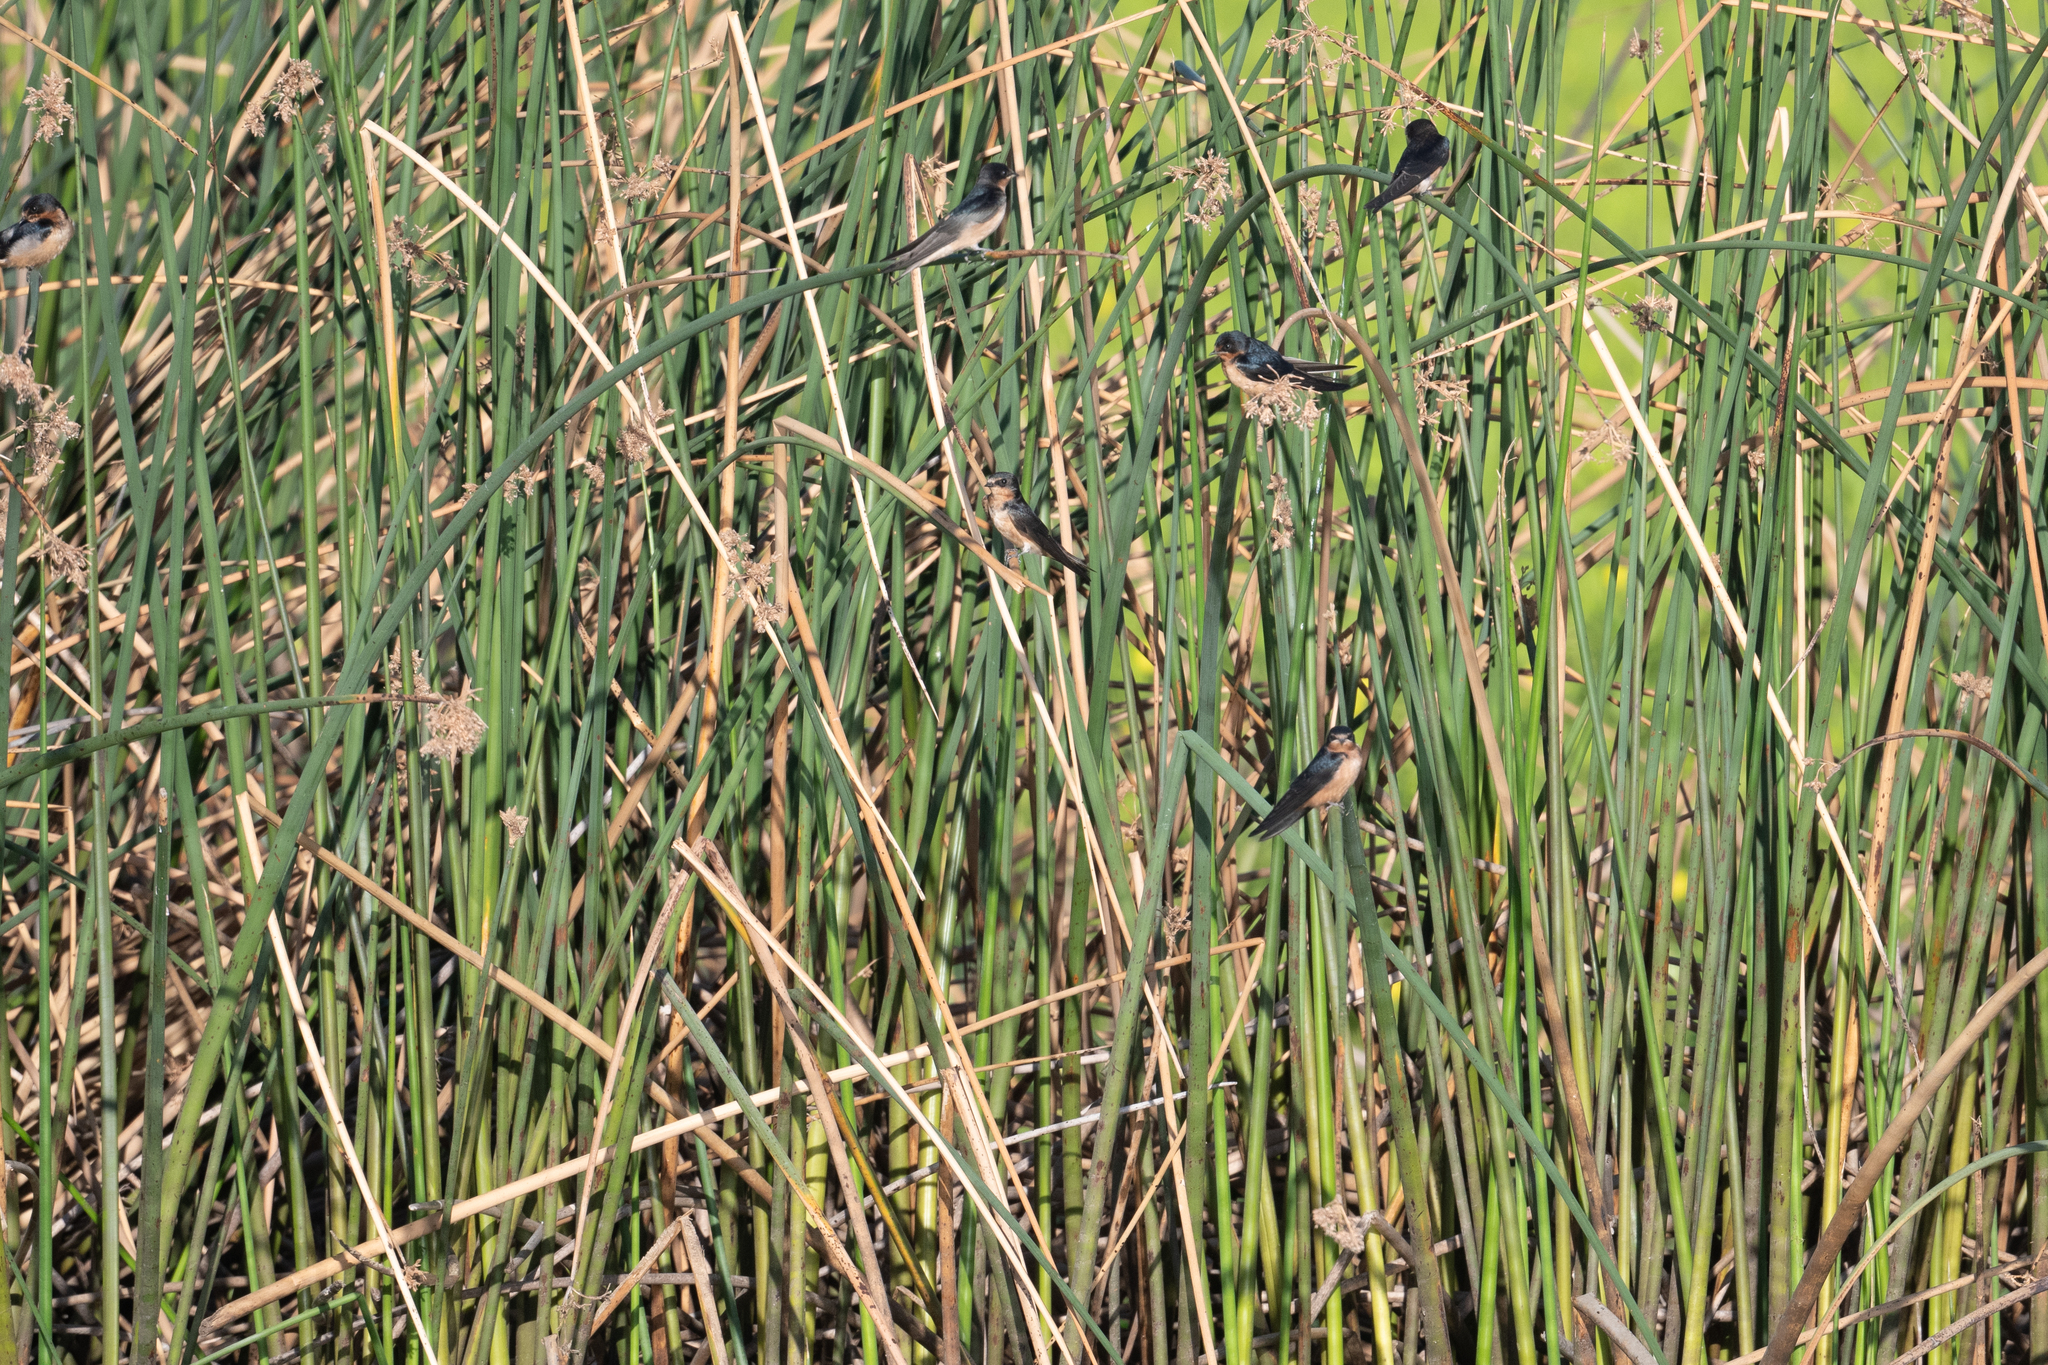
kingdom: Animalia
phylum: Chordata
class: Aves
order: Passeriformes
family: Hirundinidae
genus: Hirundo
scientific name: Hirundo rustica
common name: Barn swallow
